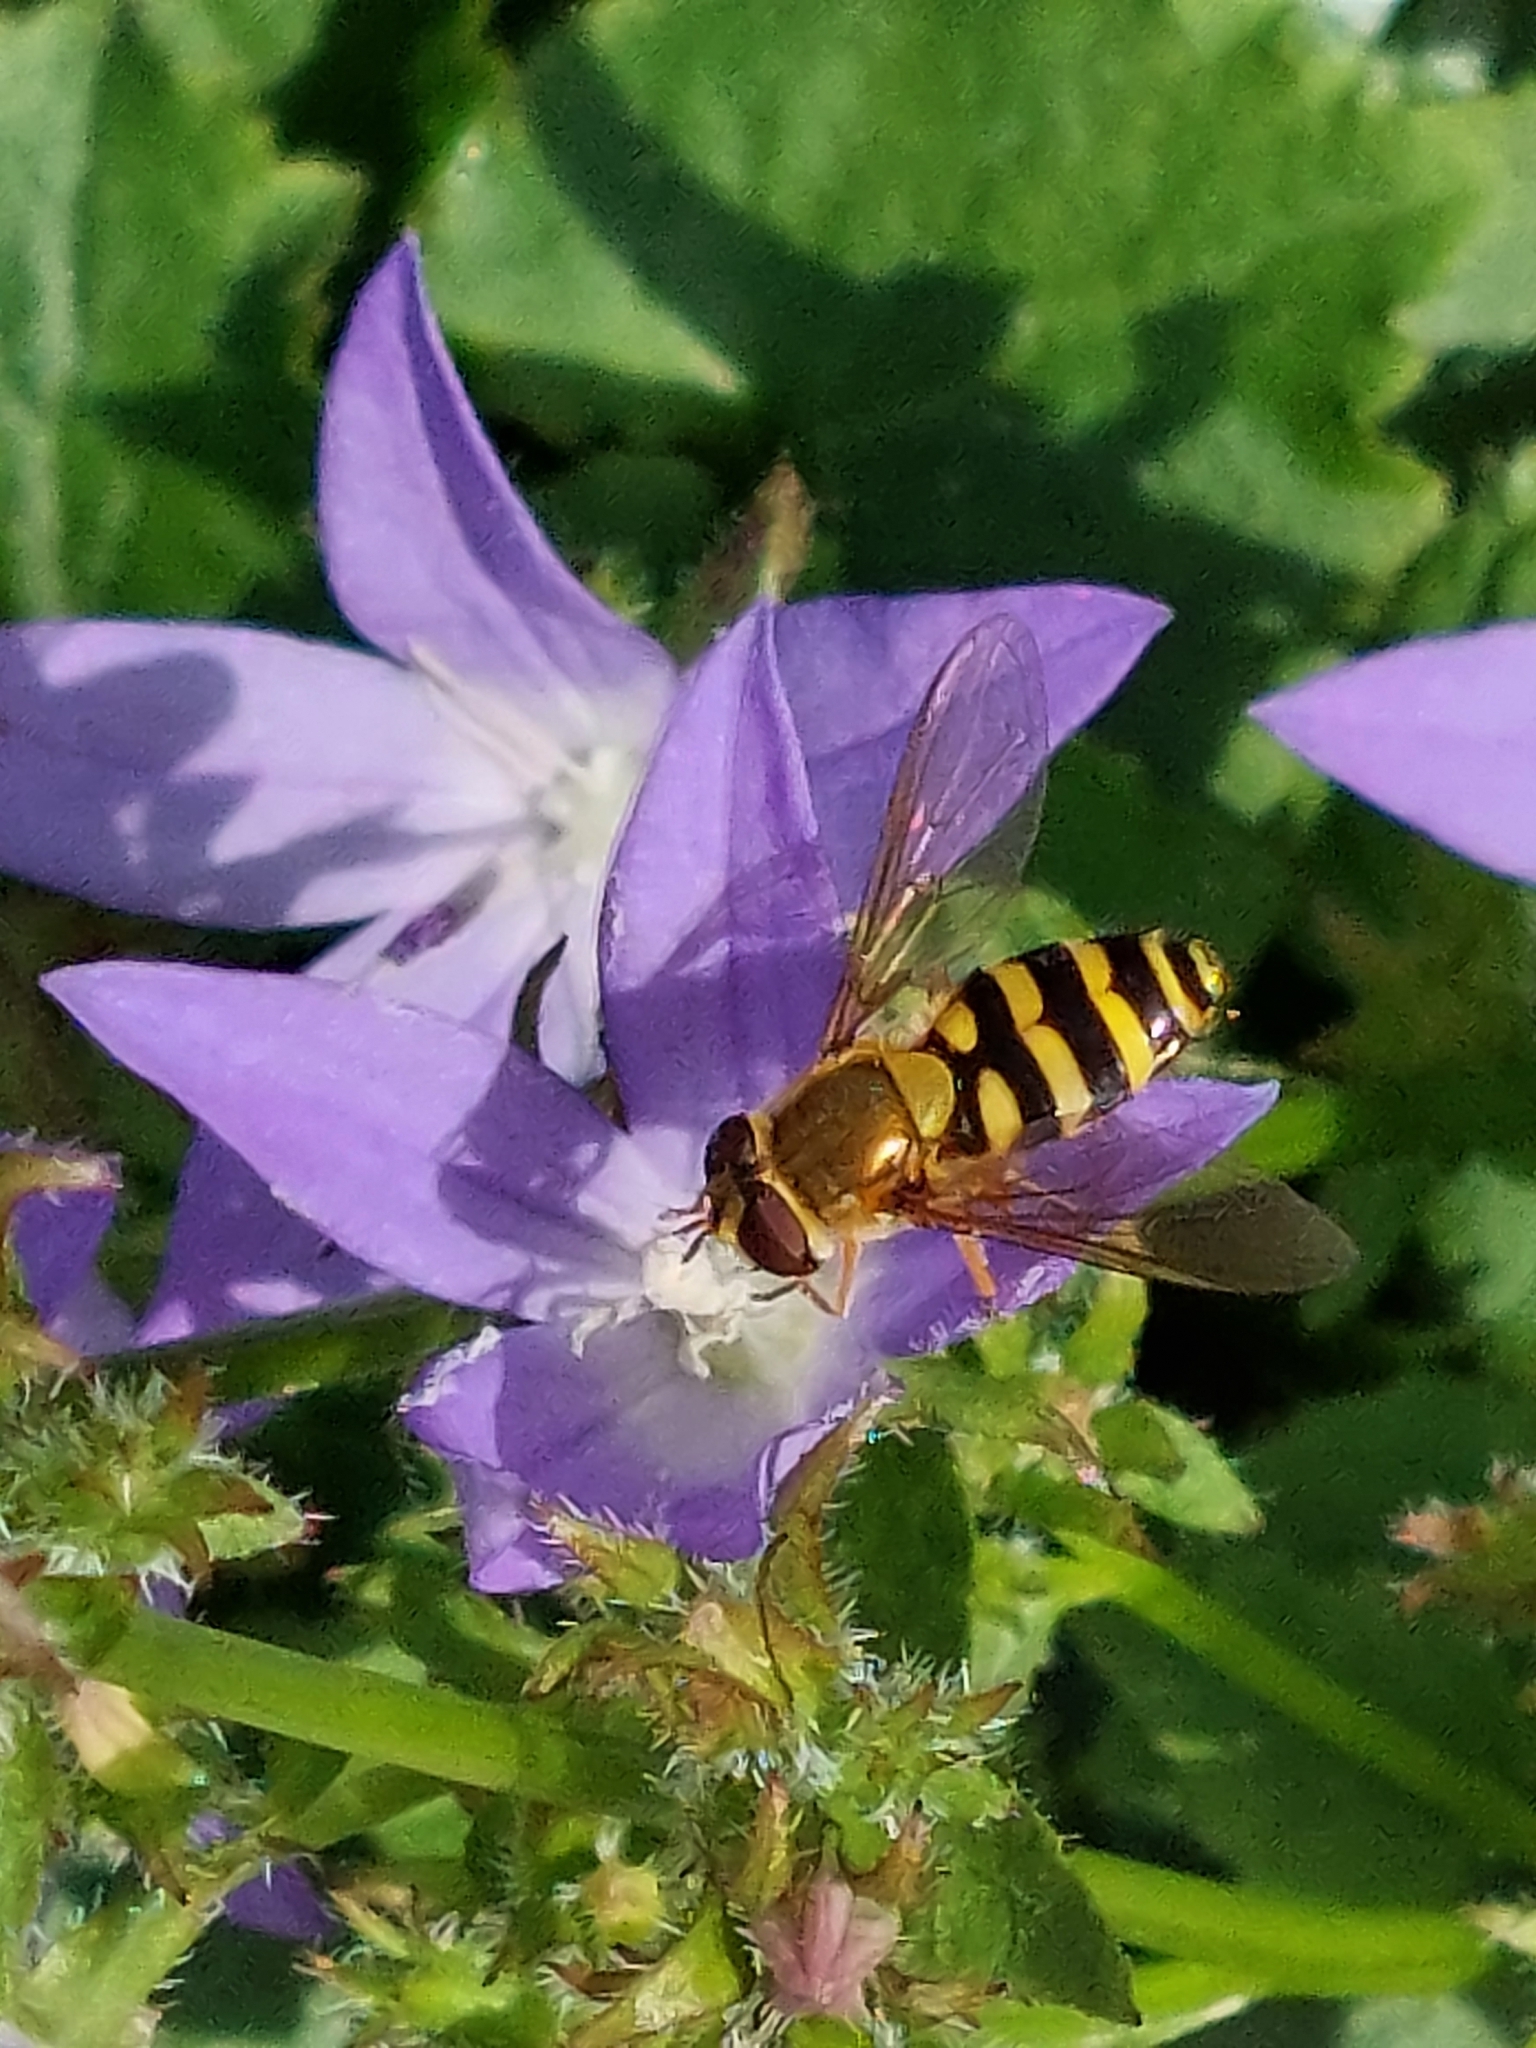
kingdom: Animalia
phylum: Arthropoda
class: Insecta
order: Diptera
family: Syrphidae
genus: Syrphus
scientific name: Syrphus
